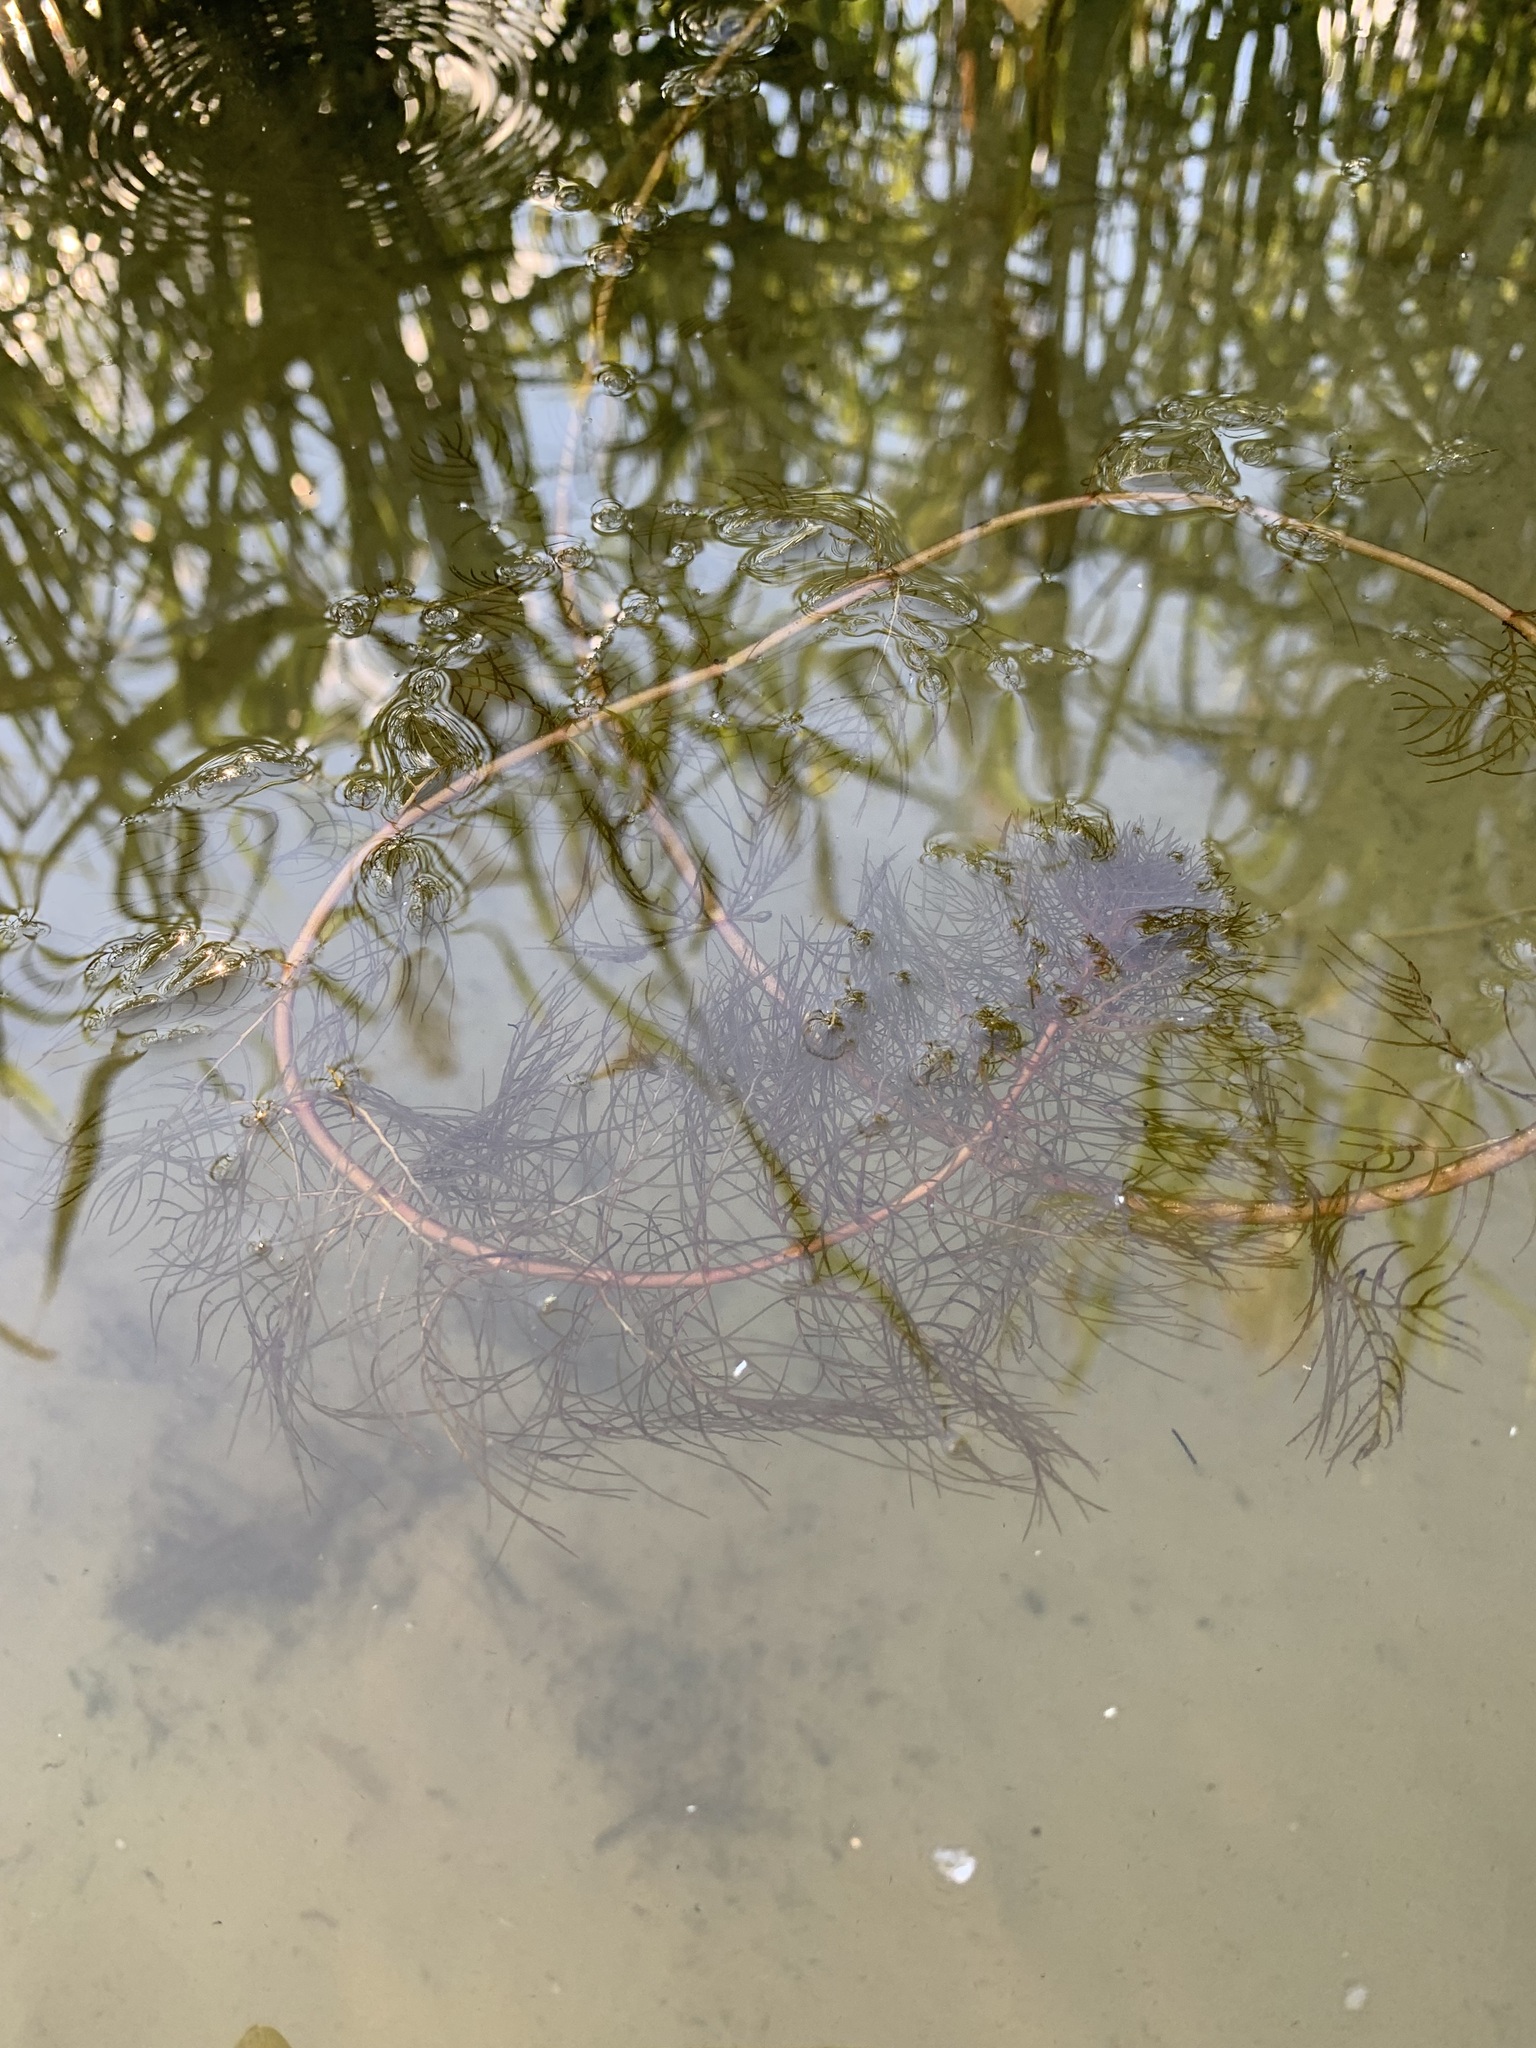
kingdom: Plantae
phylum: Tracheophyta
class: Magnoliopsida
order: Saxifragales
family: Haloragaceae
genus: Myriophyllum
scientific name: Myriophyllum sibiricum
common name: Siberian water-milfoil
